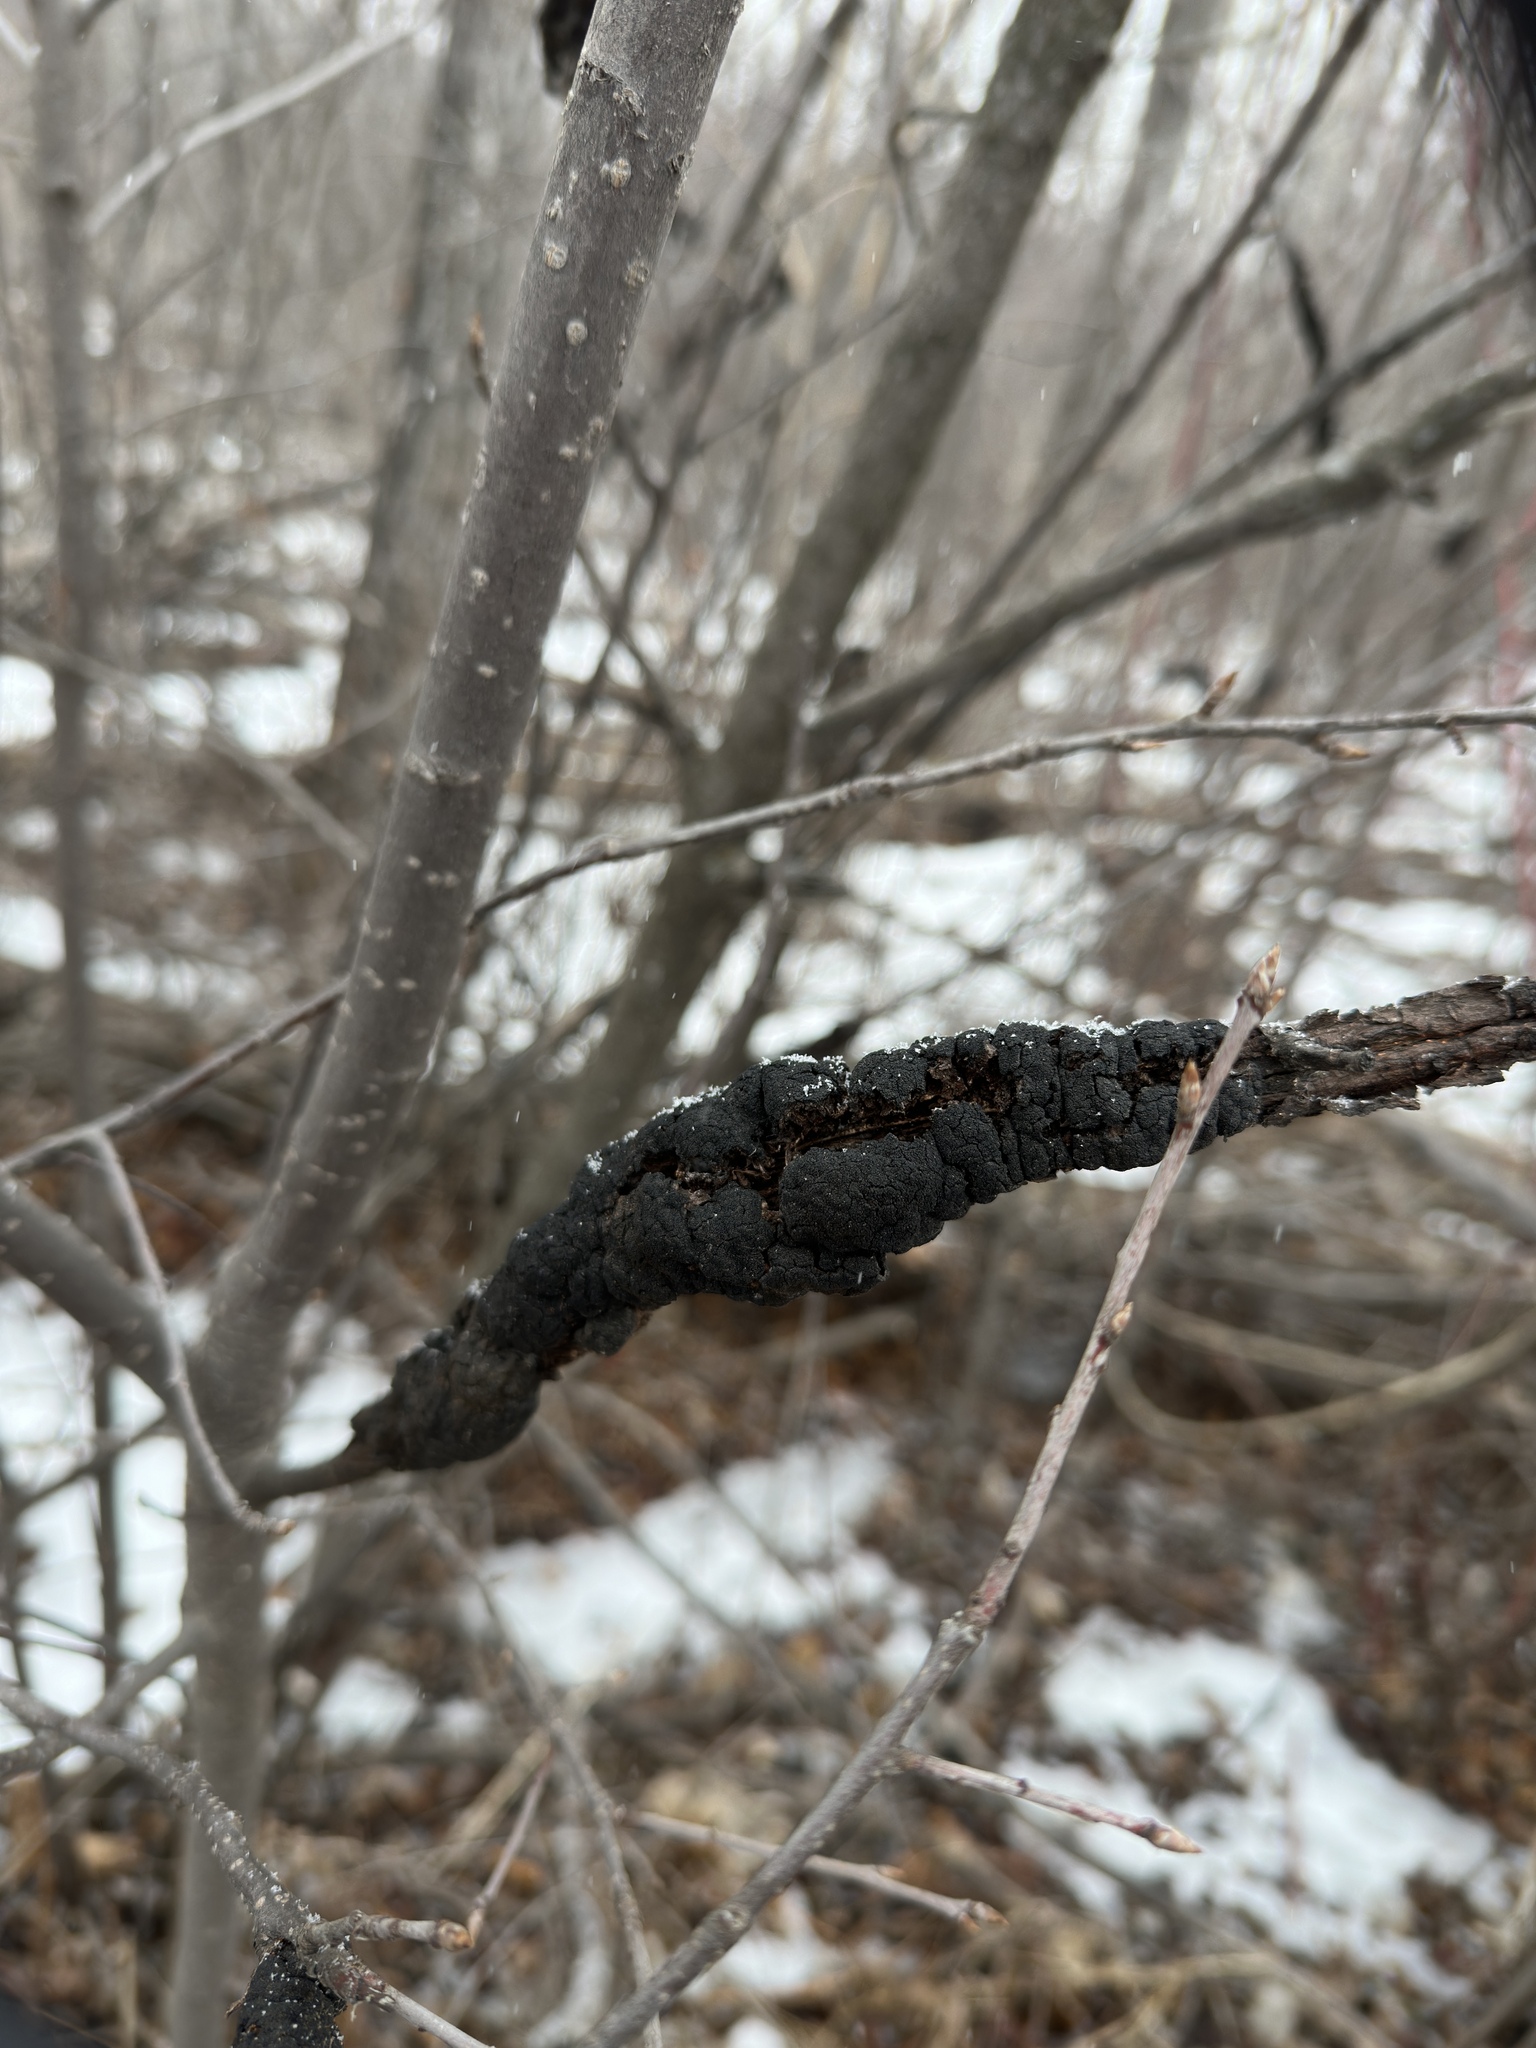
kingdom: Fungi
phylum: Ascomycota
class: Dothideomycetes
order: Venturiales
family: Venturiaceae
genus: Apiosporina
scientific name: Apiosporina morbosa
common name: Black knot
